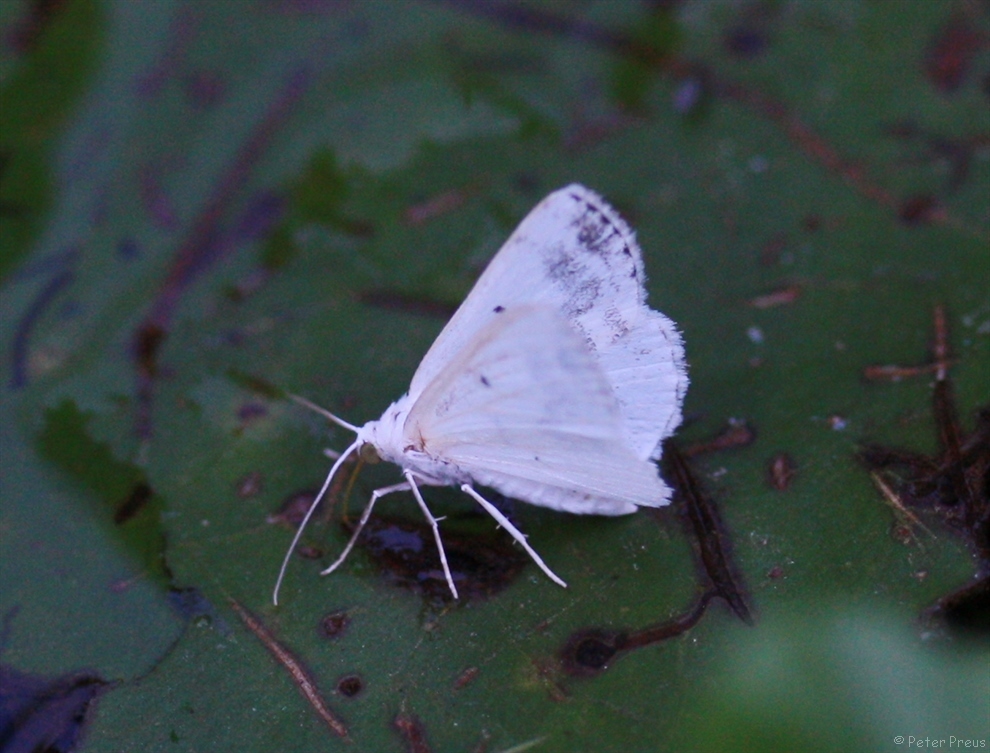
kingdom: Animalia
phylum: Arthropoda
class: Insecta
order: Lepidoptera
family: Geometridae
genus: Lomographa
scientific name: Lomographa temerata
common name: Clouded silver
